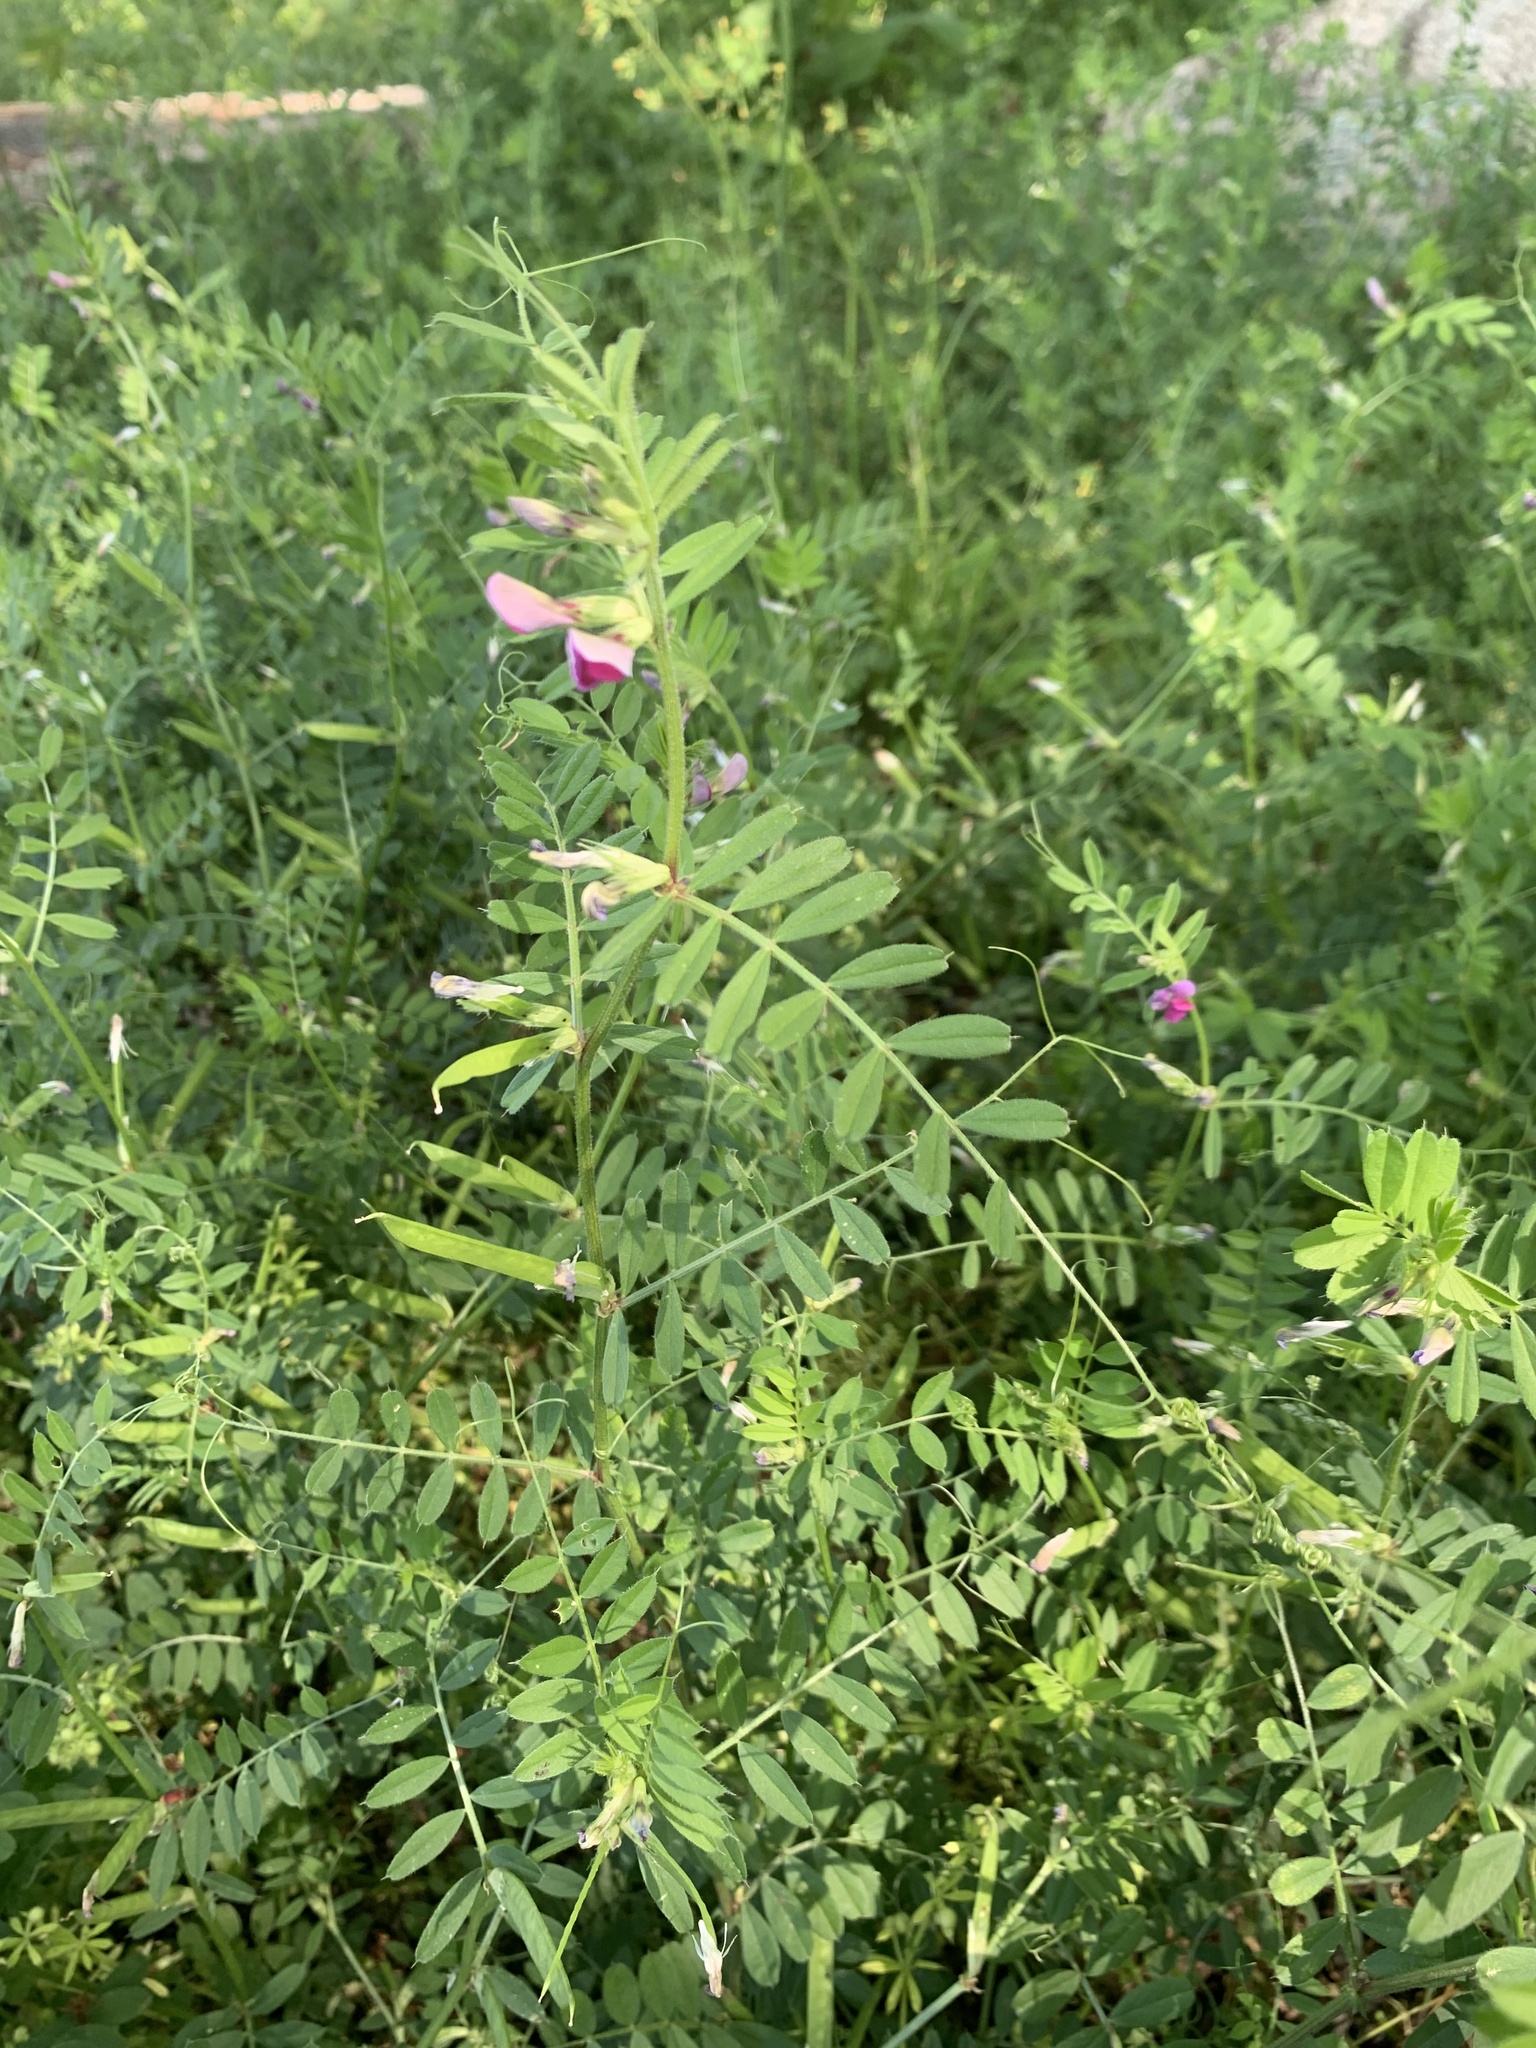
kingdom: Plantae
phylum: Tracheophyta
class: Magnoliopsida
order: Fabales
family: Fabaceae
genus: Vicia
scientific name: Vicia sativa
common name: Garden vetch
